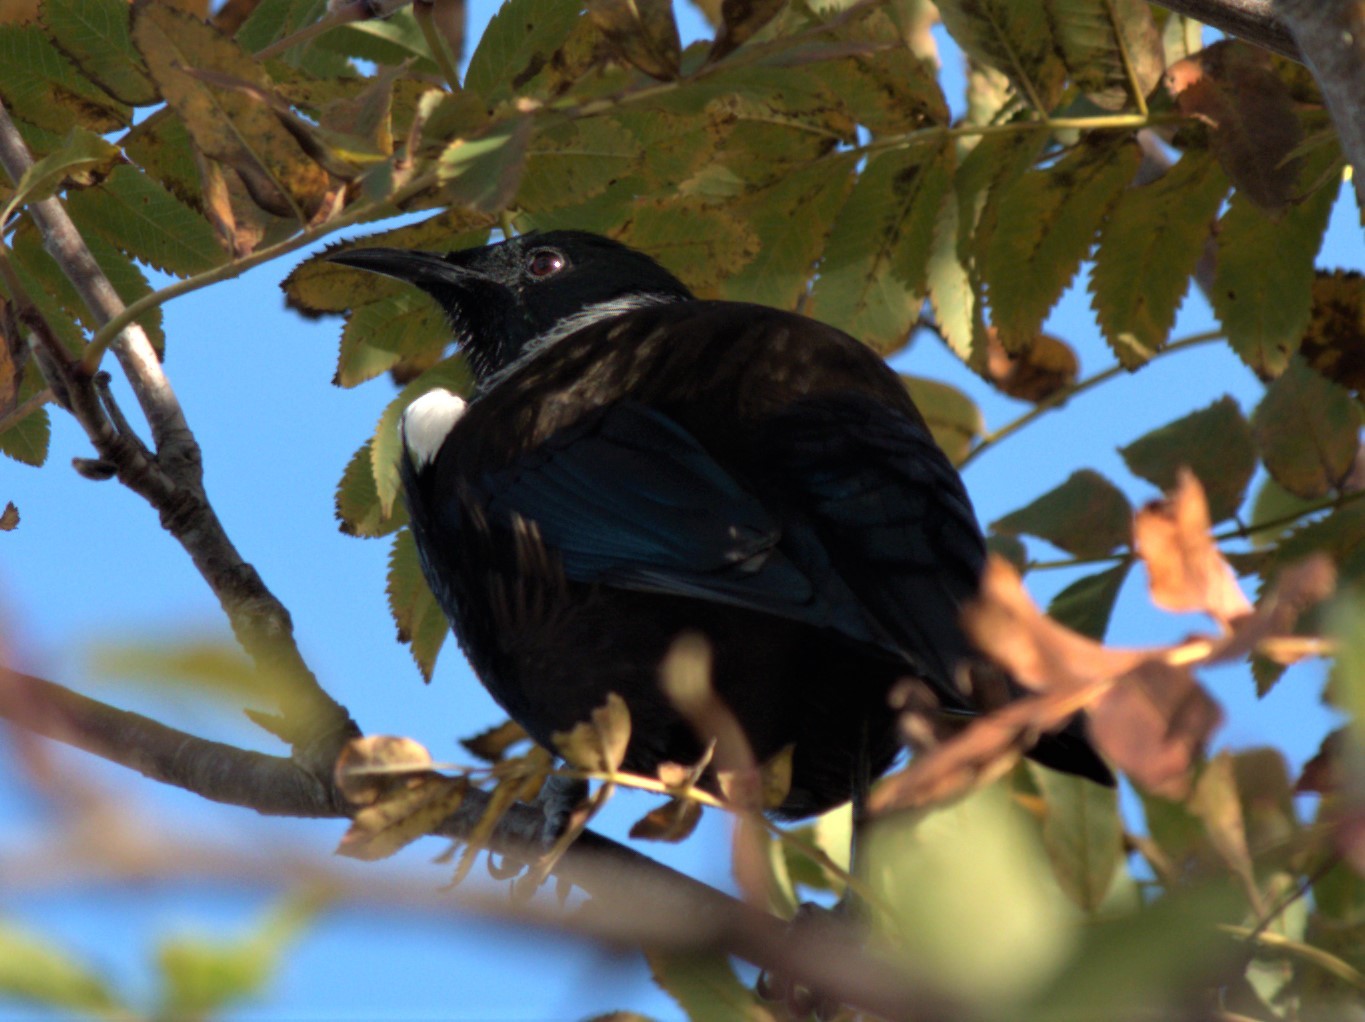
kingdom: Animalia
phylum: Chordata
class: Aves
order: Passeriformes
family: Meliphagidae
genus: Prosthemadera
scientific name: Prosthemadera novaeseelandiae
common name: Tui
